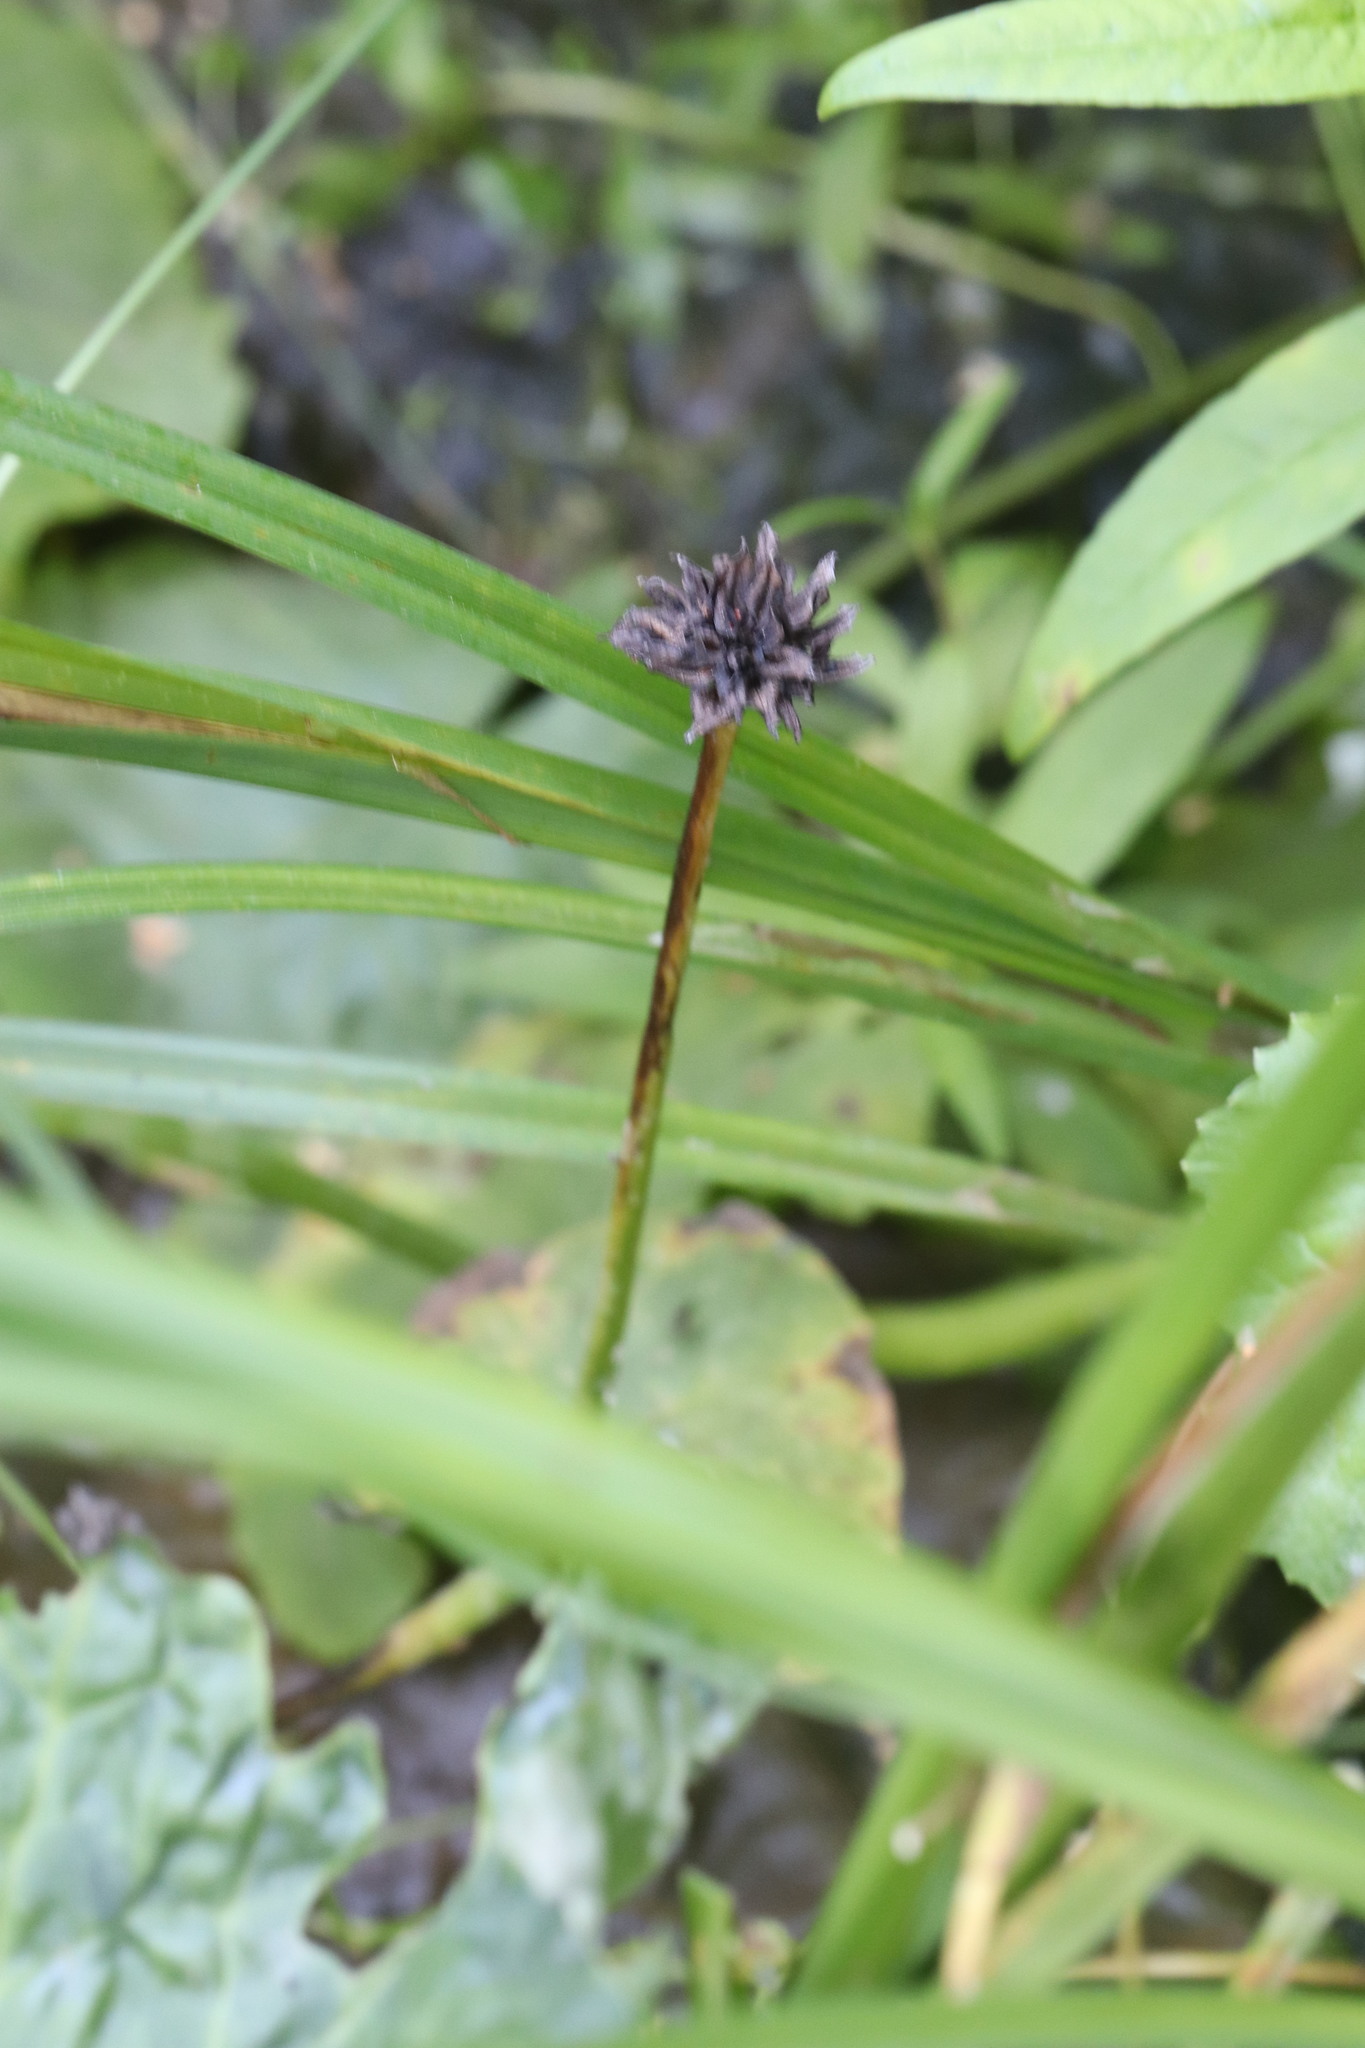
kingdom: Plantae
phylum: Tracheophyta
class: Magnoliopsida
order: Ranunculales
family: Ranunculaceae
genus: Caltha
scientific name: Caltha palustris
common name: Marsh marigold
